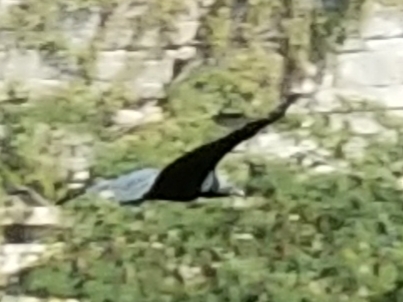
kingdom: Animalia
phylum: Chordata
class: Aves
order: Accipitriformes
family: Cathartidae
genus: Coragyps
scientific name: Coragyps atratus
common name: Black vulture
